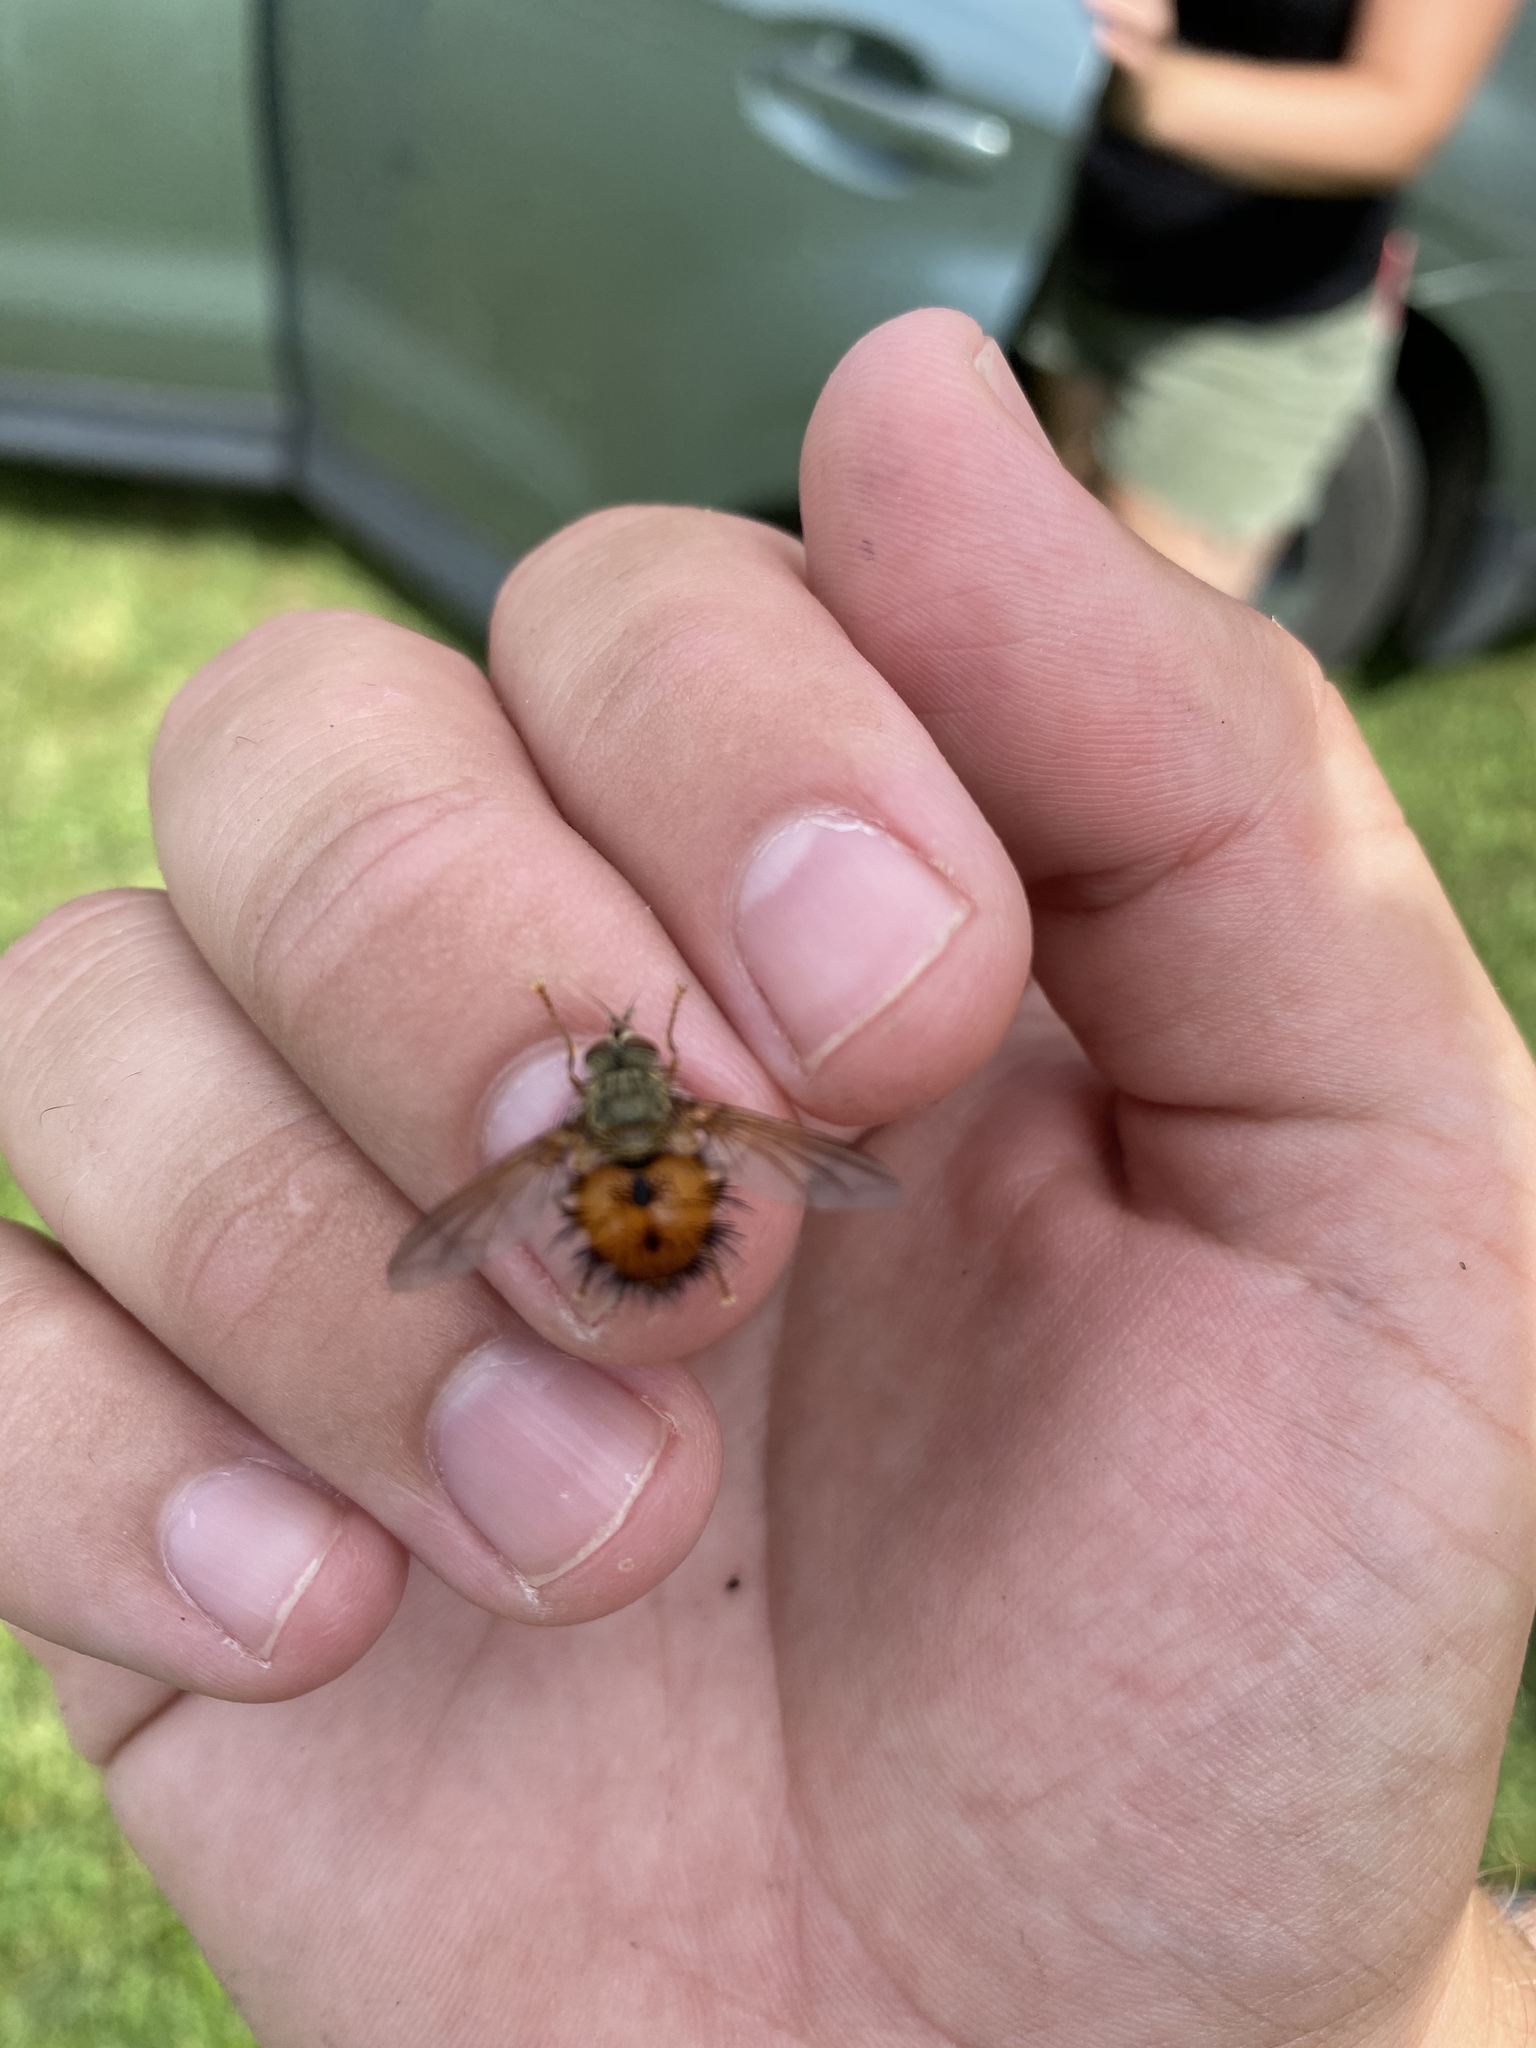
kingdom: Animalia
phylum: Arthropoda
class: Insecta
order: Diptera
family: Tachinidae
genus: Hystricia
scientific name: Hystricia abrupta
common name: Tomato bristle fly
